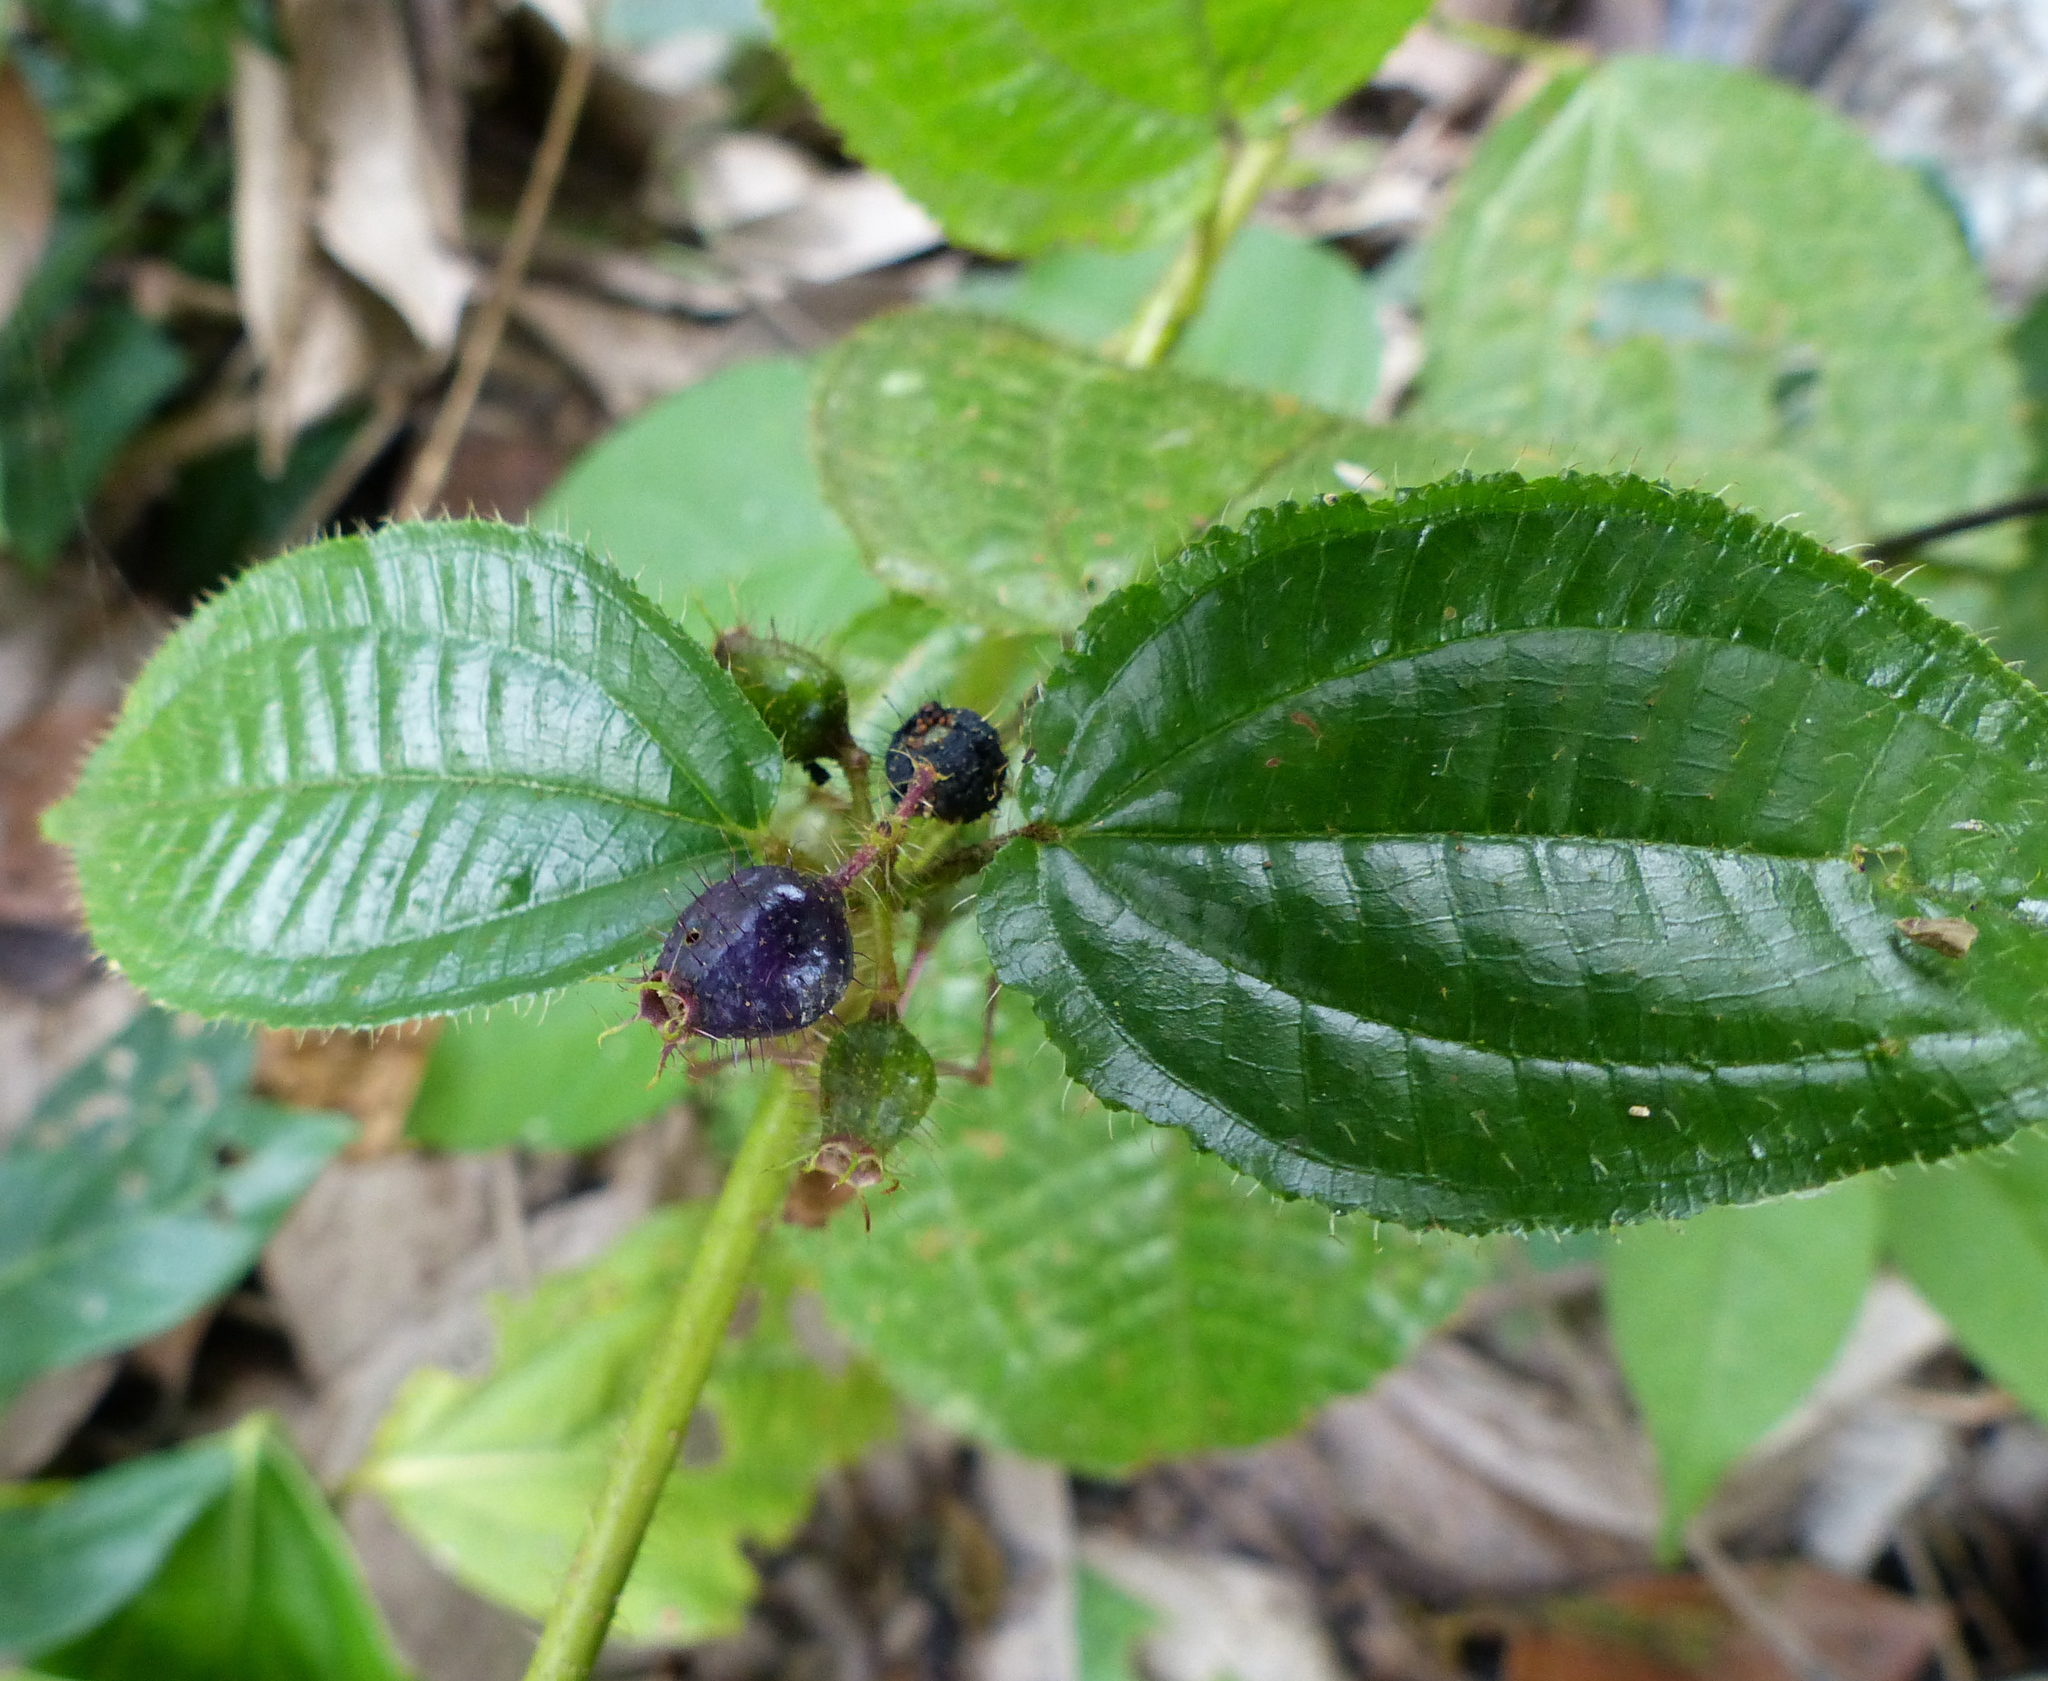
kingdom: Plantae
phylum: Tracheophyta
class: Magnoliopsida
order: Myrtales
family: Melastomataceae
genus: Miconia
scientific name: Miconia crenata
